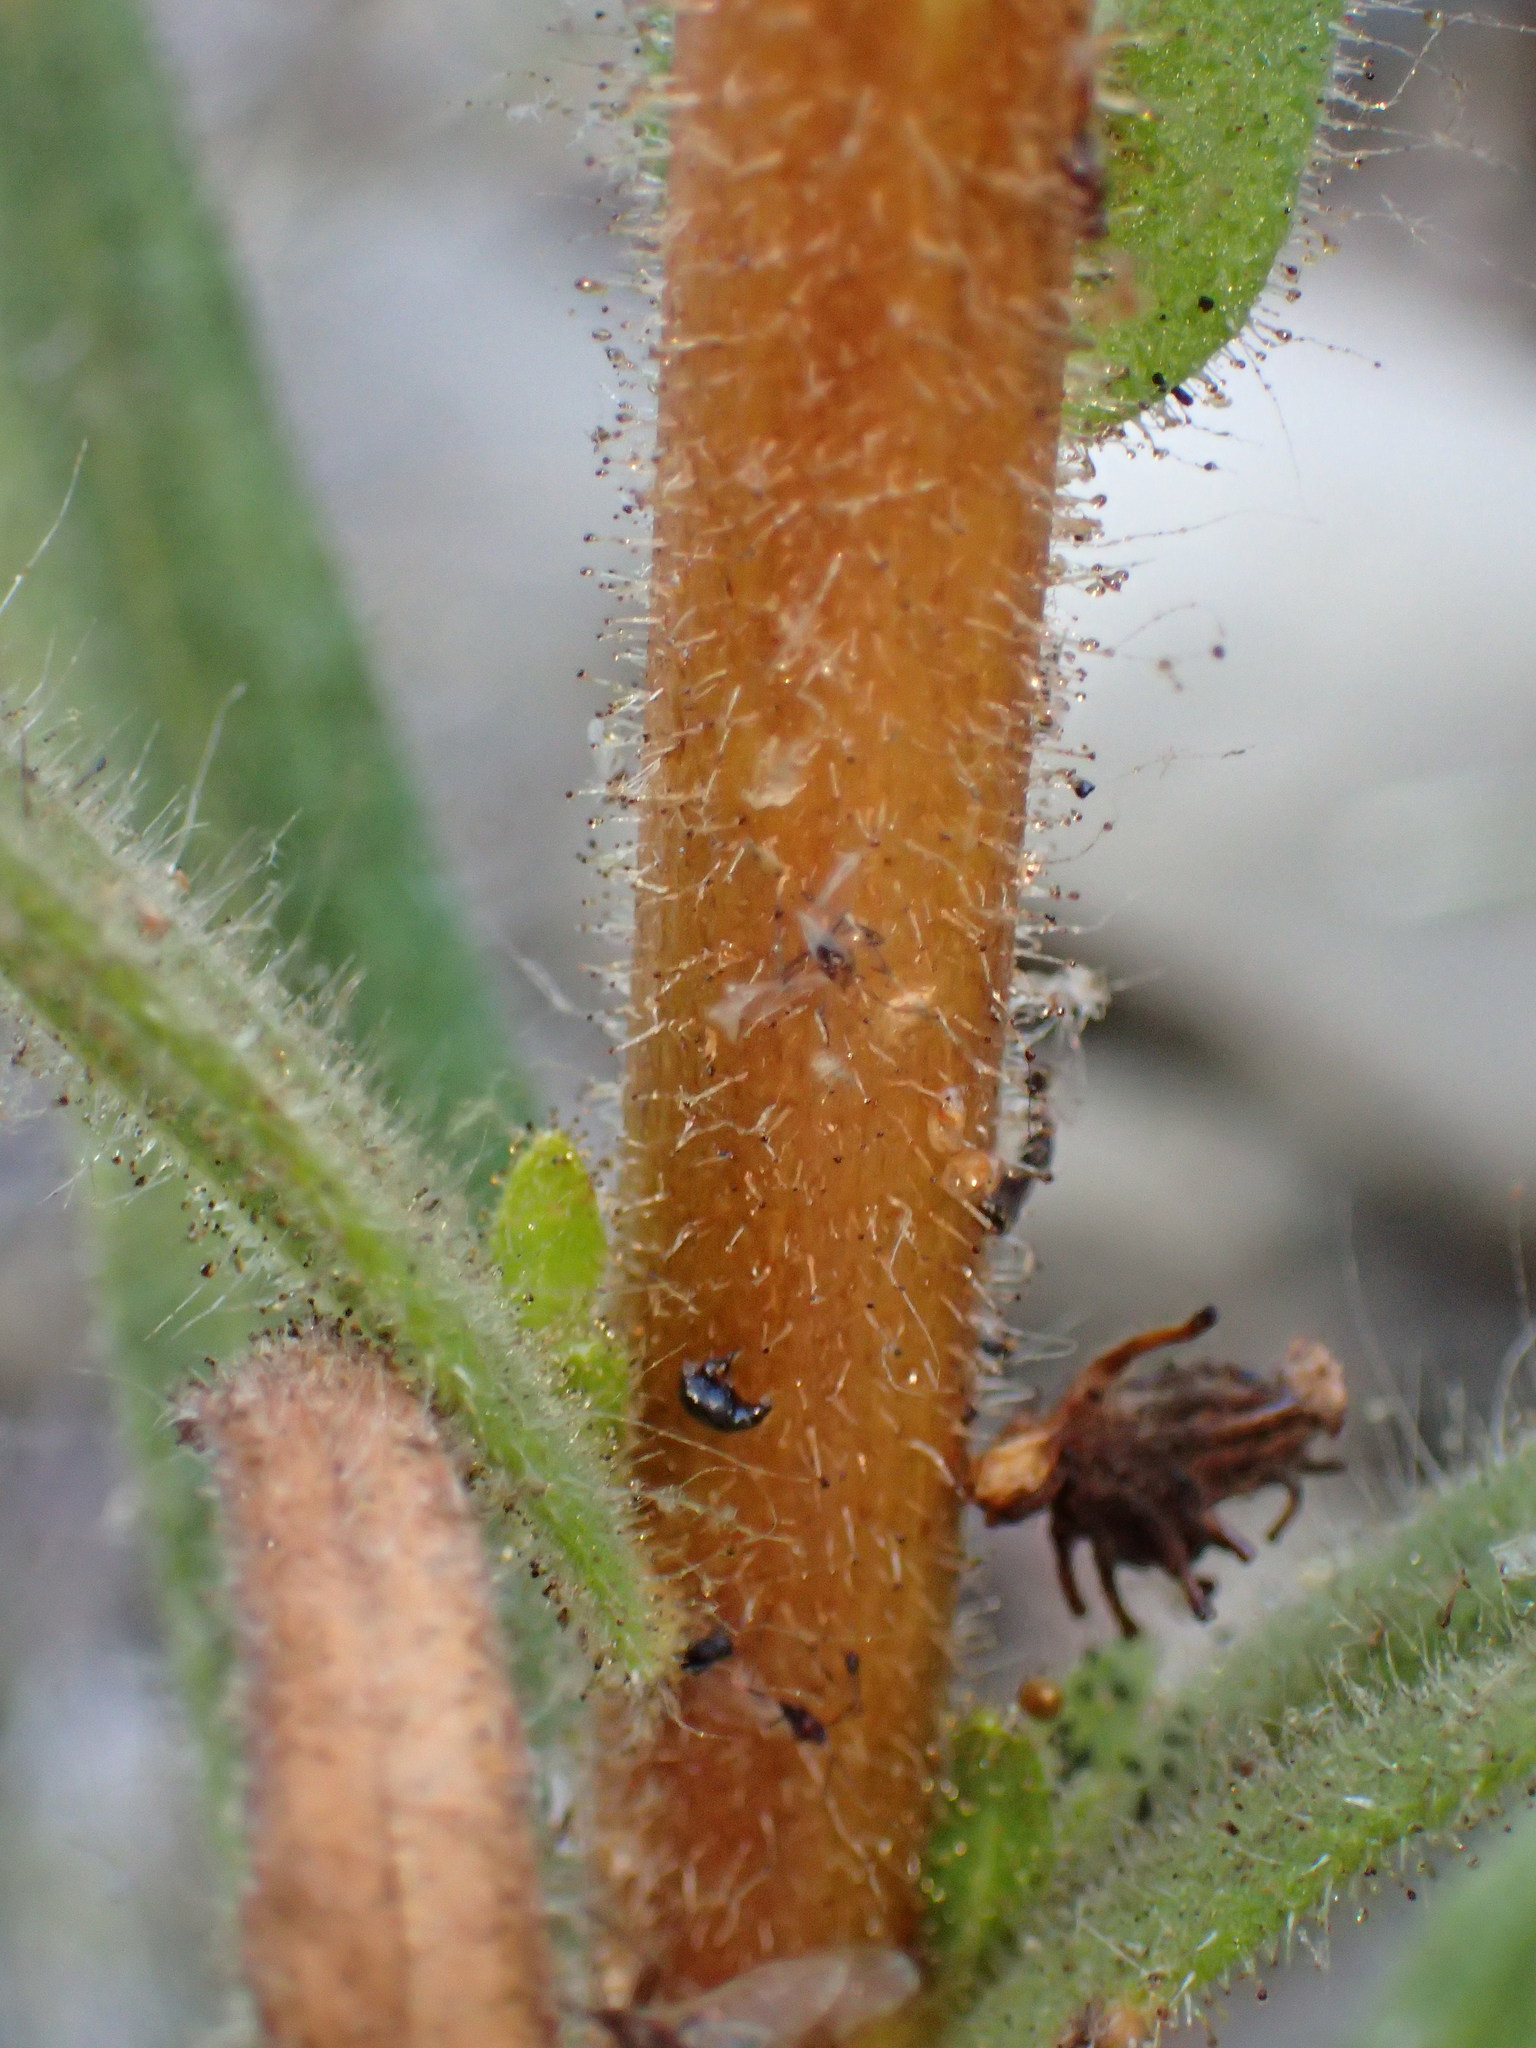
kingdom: Plantae
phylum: Tracheophyta
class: Magnoliopsida
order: Asterales
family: Asteraceae
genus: Madia
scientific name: Madia sativa
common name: Coast tarweed
